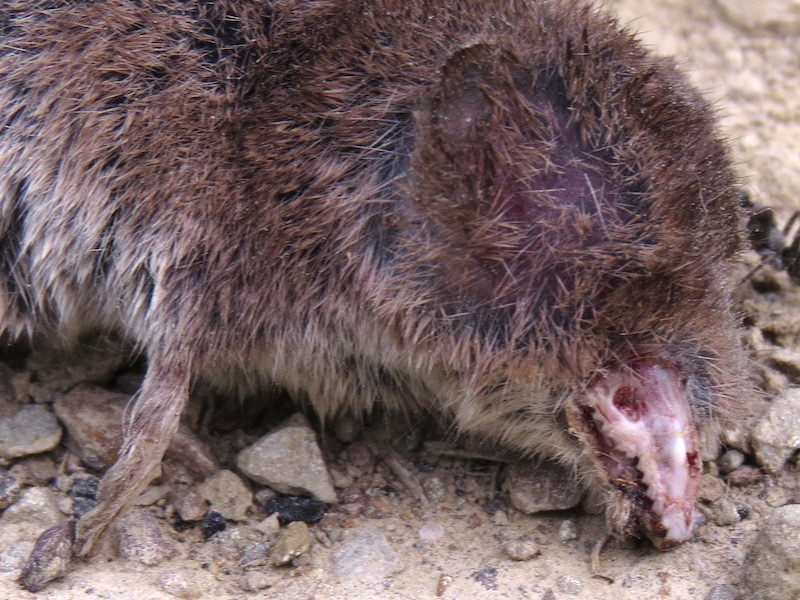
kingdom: Animalia
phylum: Chordata
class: Mammalia
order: Soricomorpha
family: Soricidae
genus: Sorex
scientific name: Sorex cinereus
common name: Cinereus shrew
